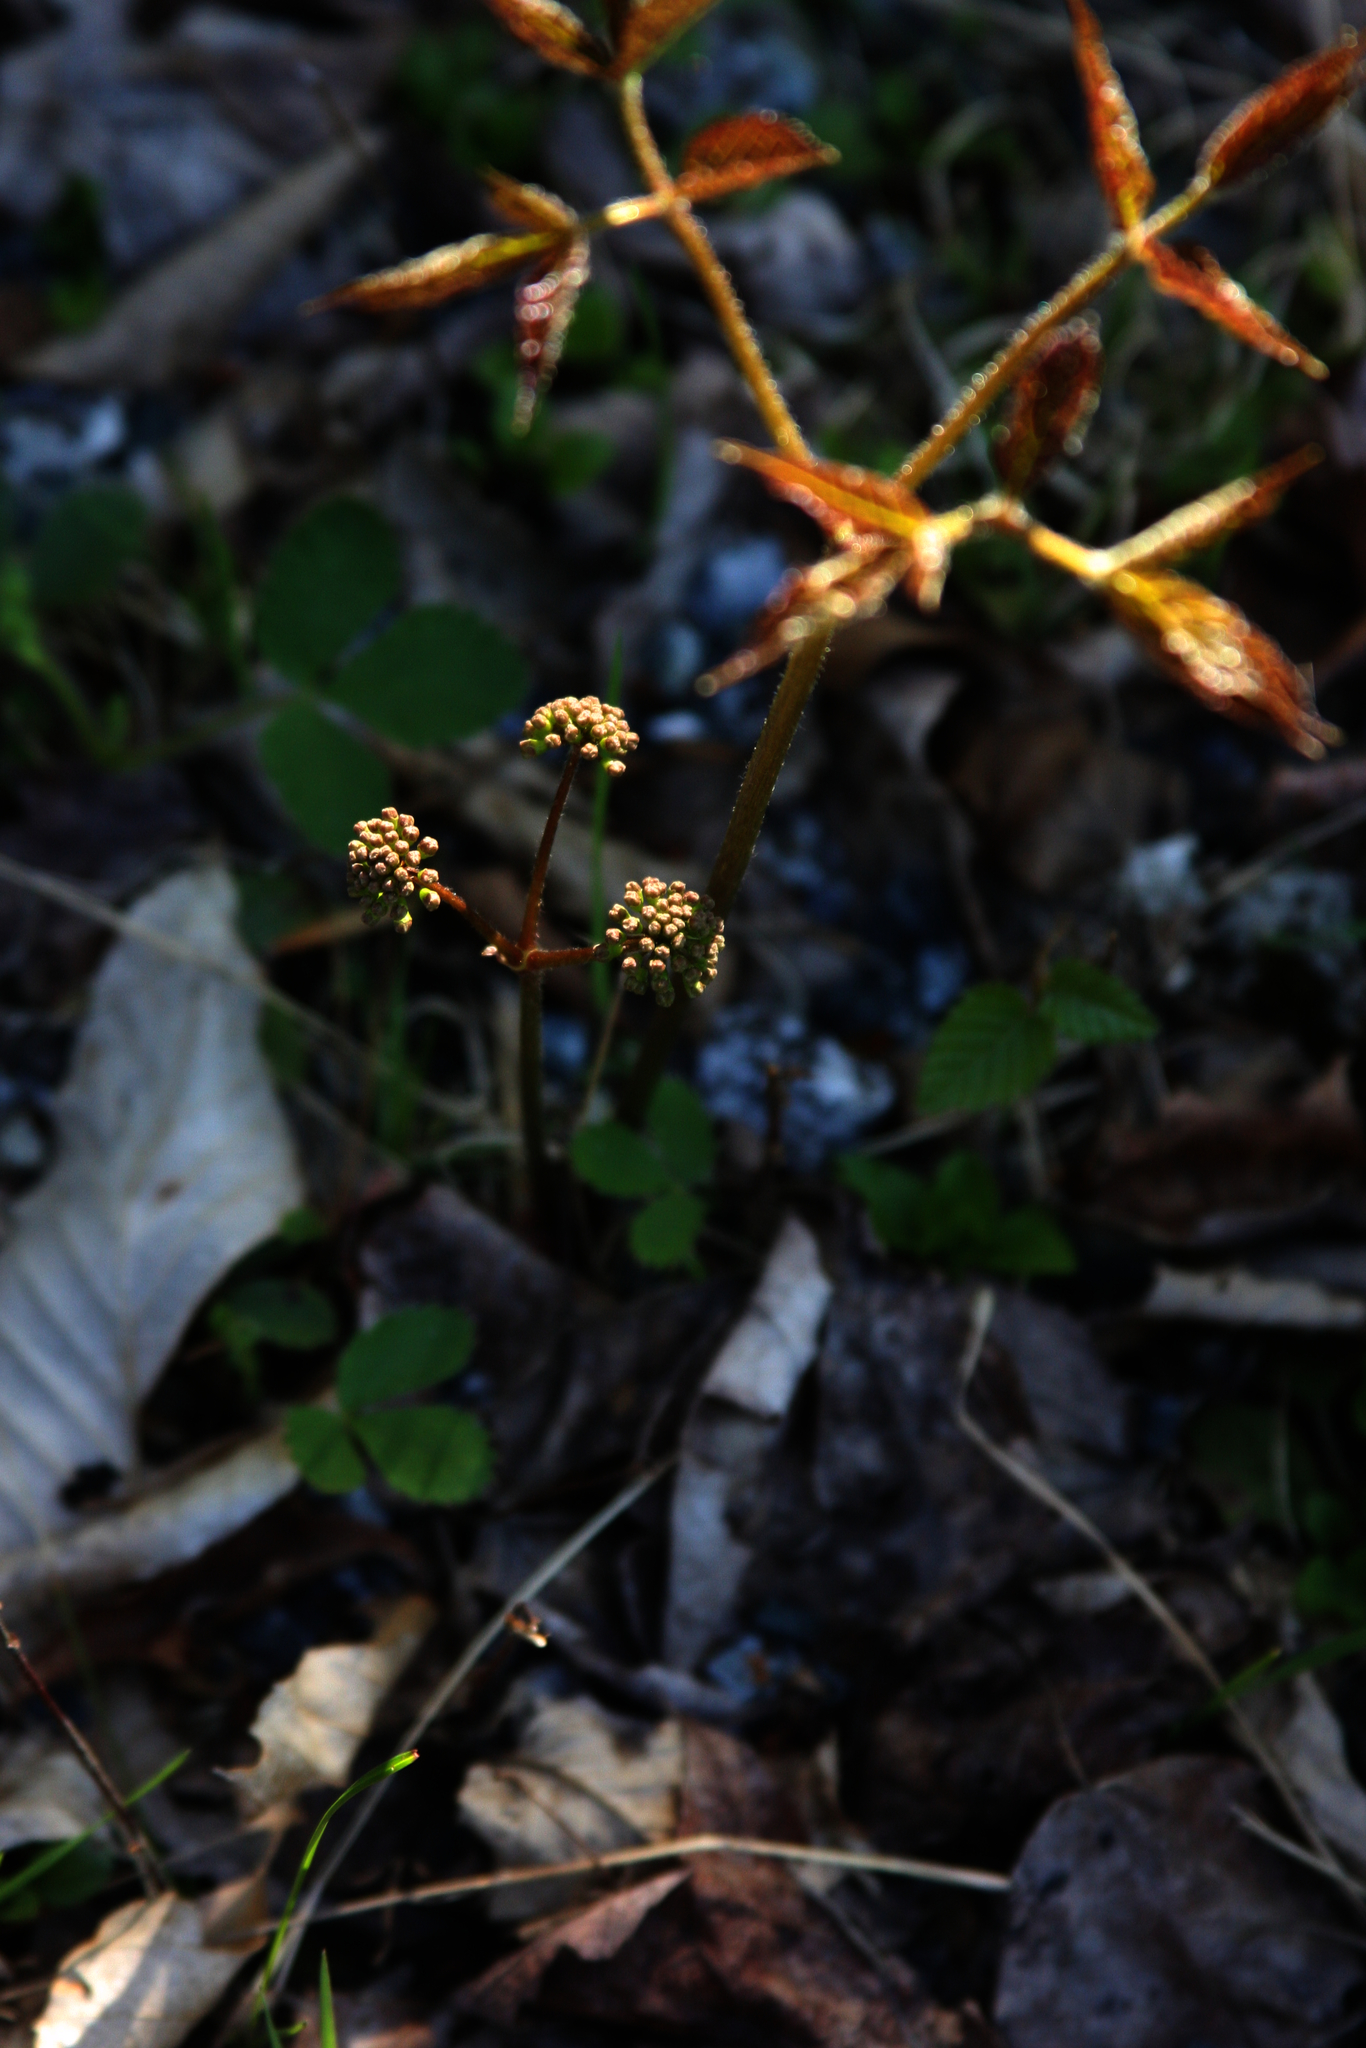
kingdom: Plantae
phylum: Tracheophyta
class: Magnoliopsida
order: Apiales
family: Araliaceae
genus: Aralia
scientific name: Aralia nudicaulis
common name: Wild sarsaparilla
